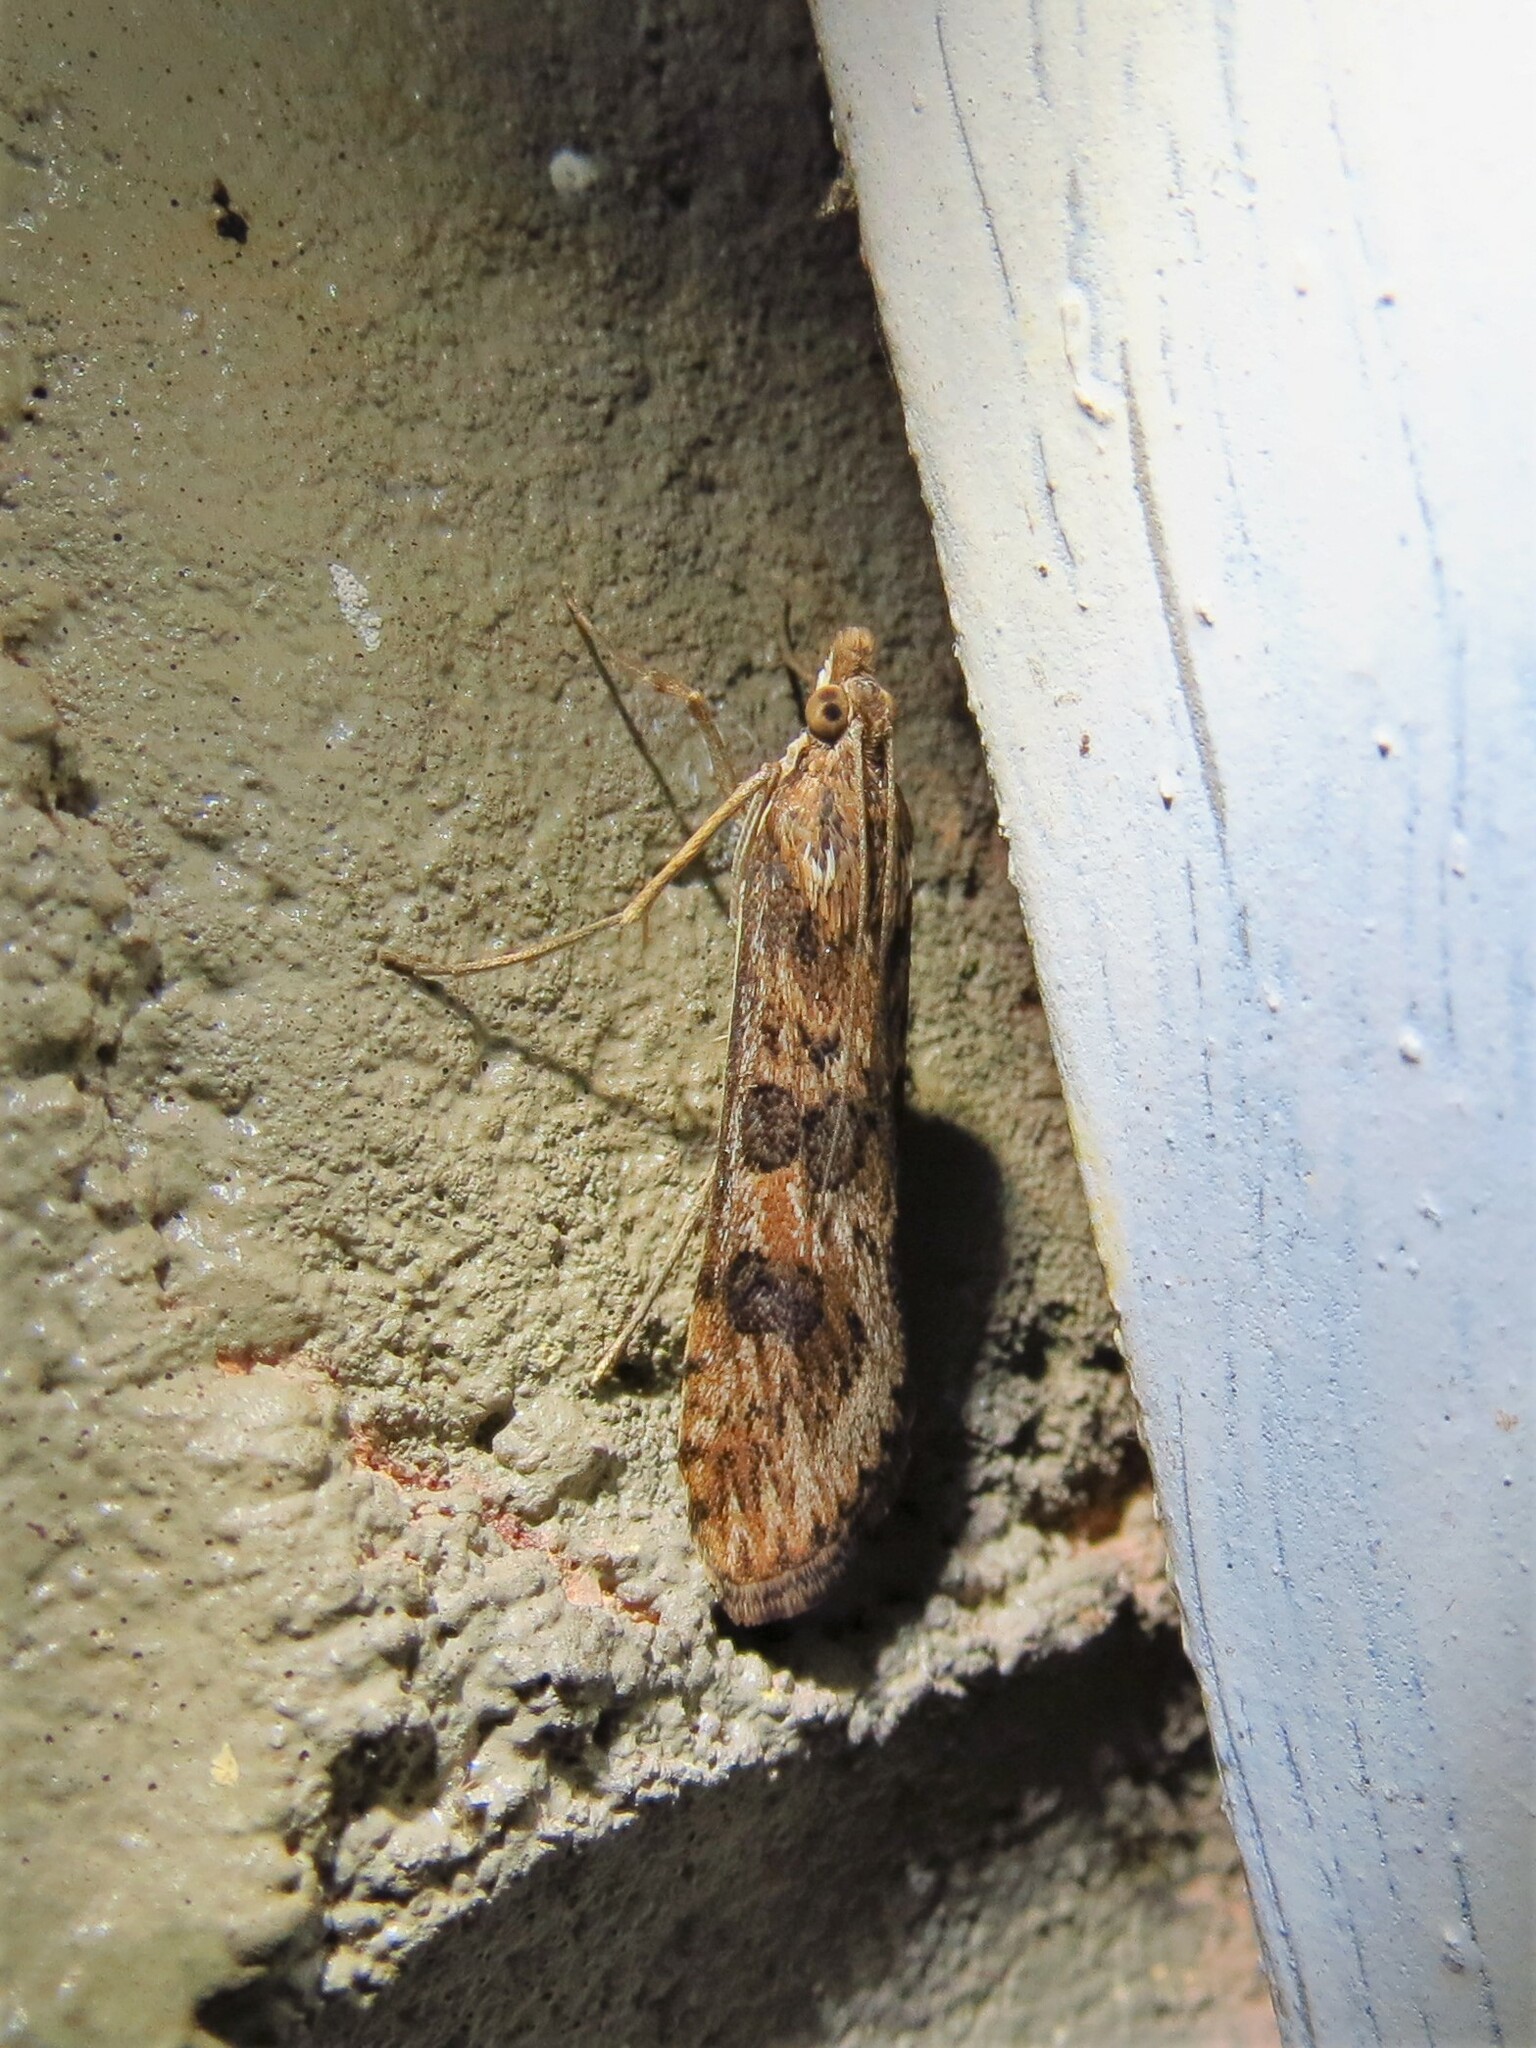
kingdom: Animalia
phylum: Arthropoda
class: Insecta
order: Lepidoptera
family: Crambidae
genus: Nomophila
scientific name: Nomophila nearctica
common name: American rush veneer
